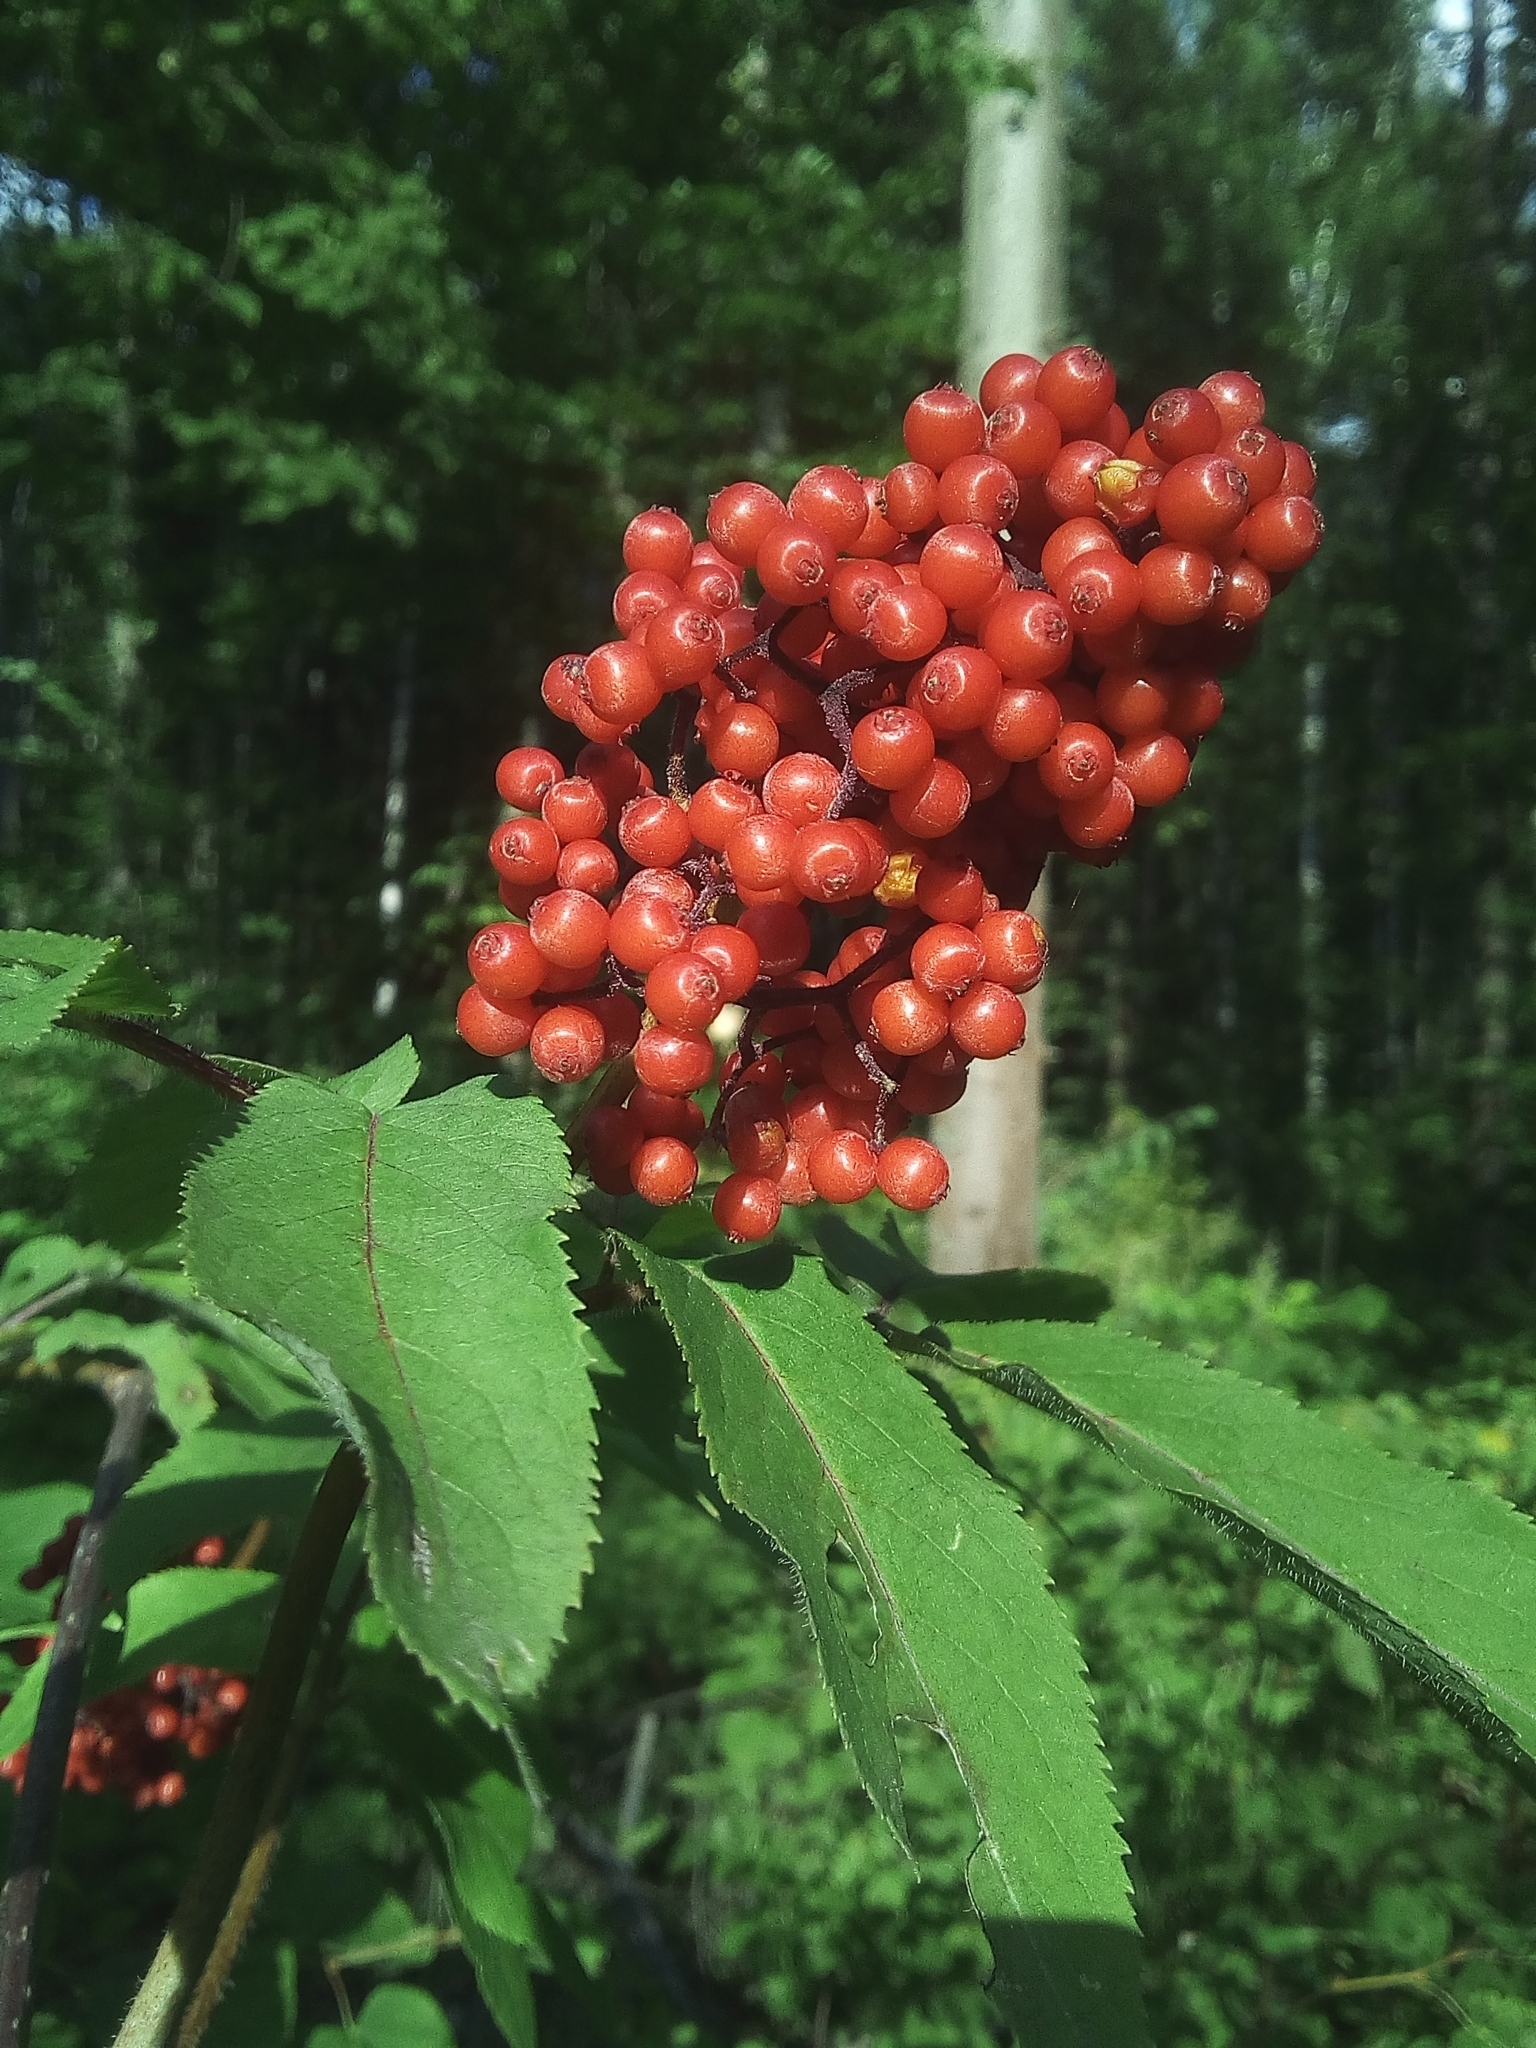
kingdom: Plantae
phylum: Tracheophyta
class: Magnoliopsida
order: Dipsacales
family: Viburnaceae
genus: Sambucus
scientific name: Sambucus racemosa
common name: Red-berried elder
